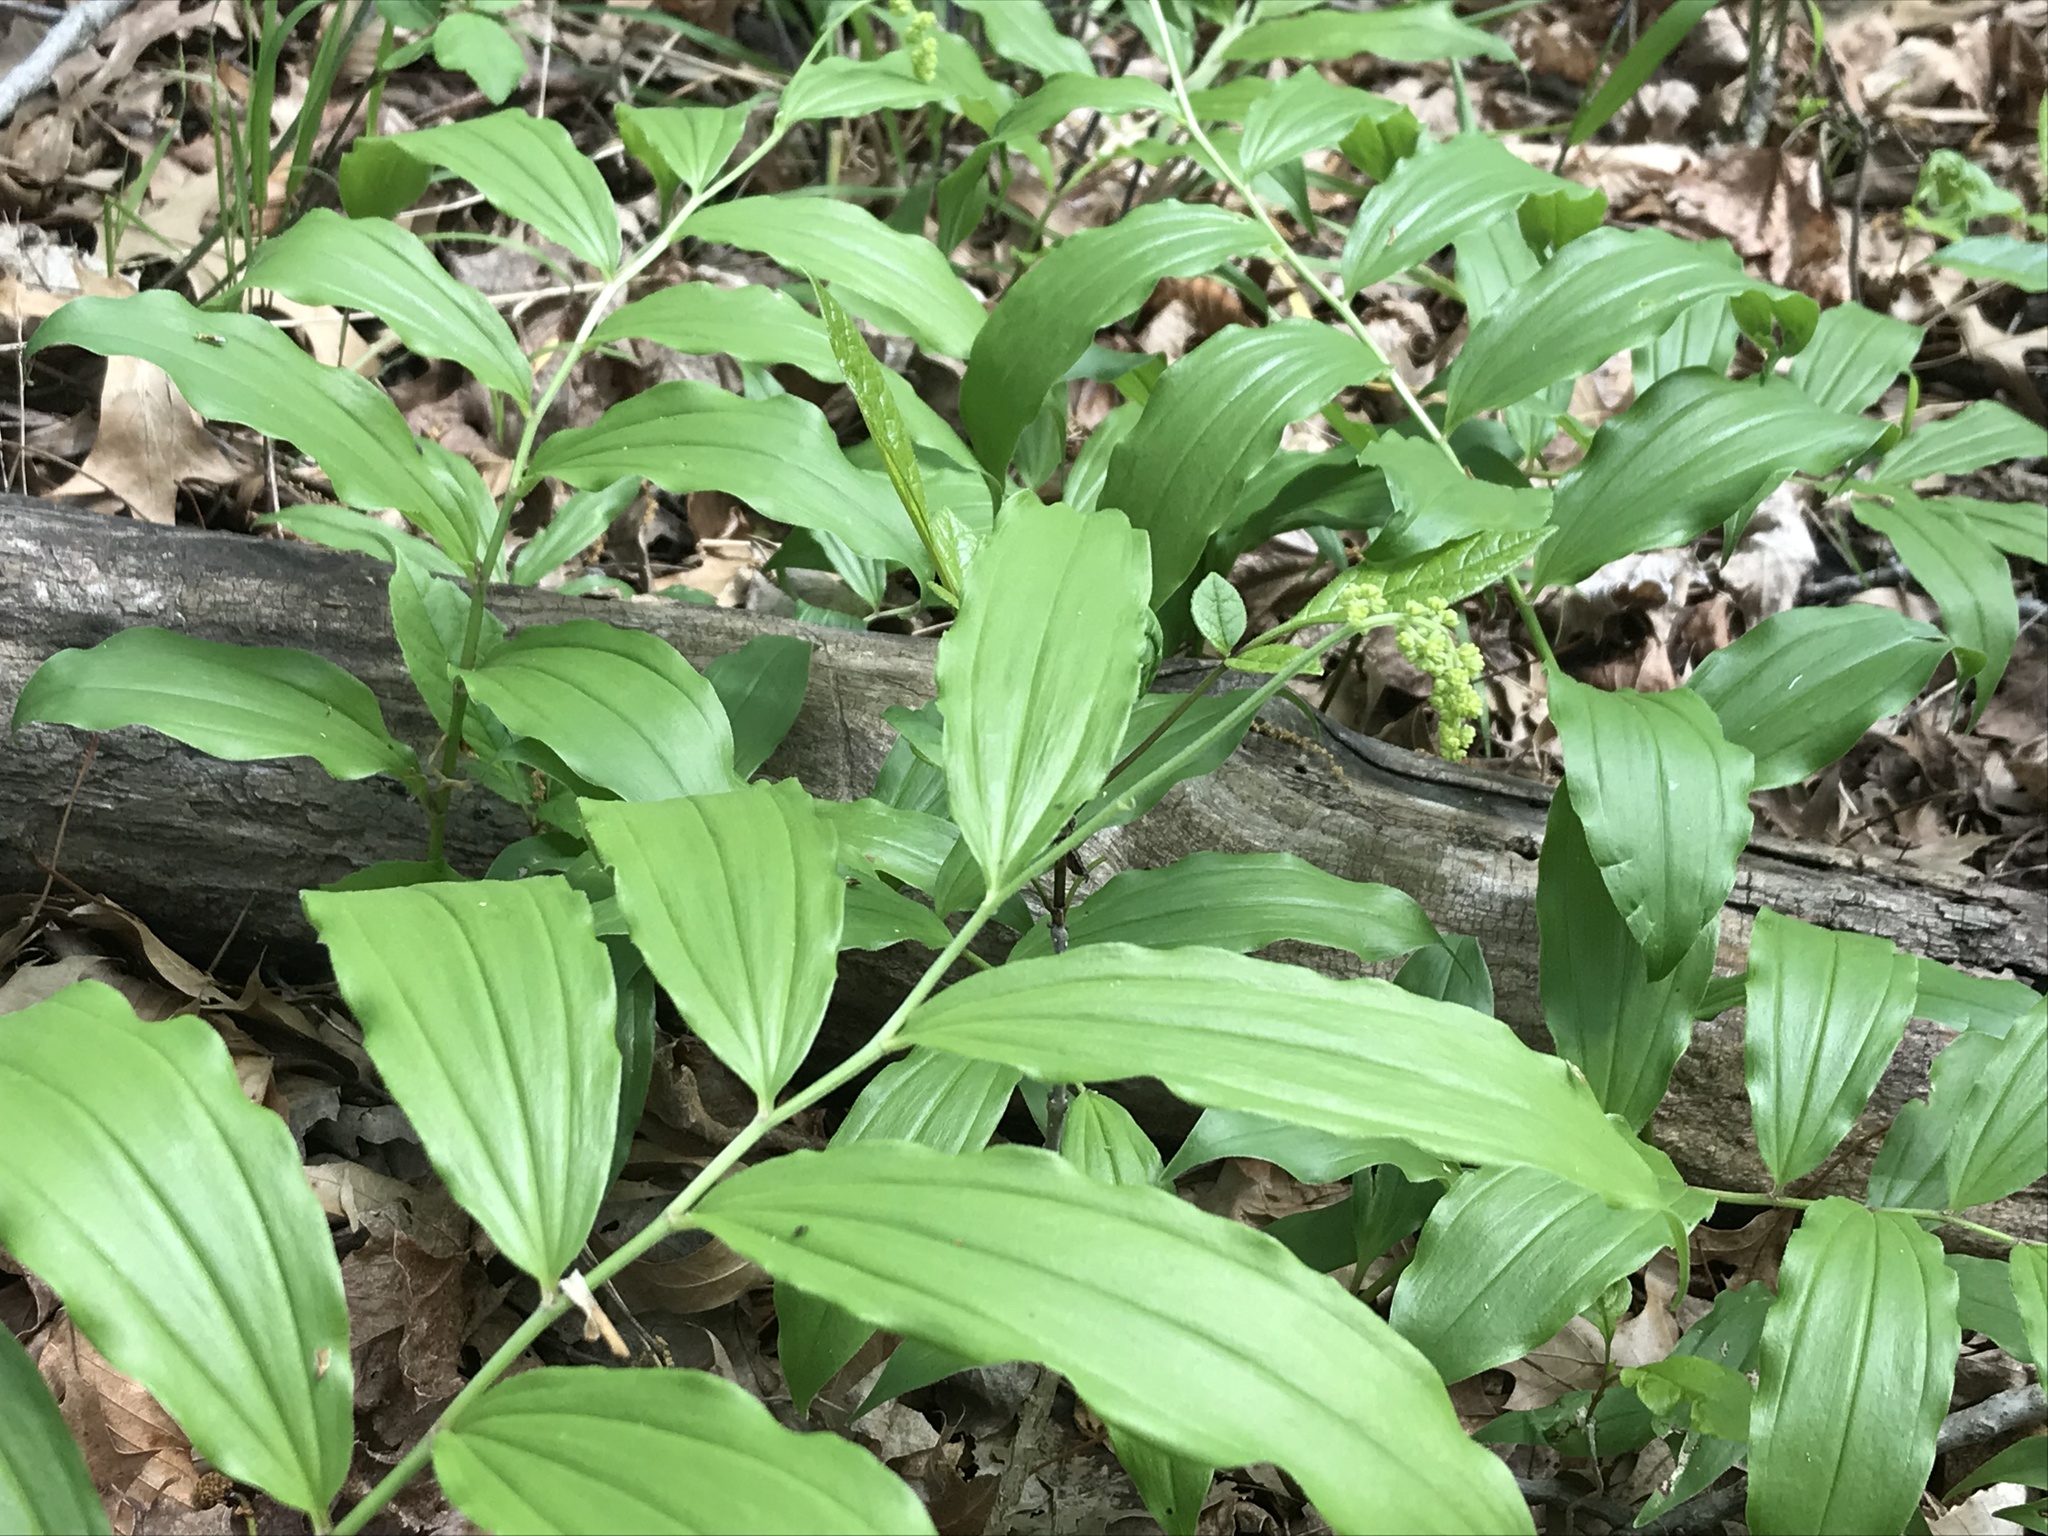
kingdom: Plantae
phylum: Tracheophyta
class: Liliopsida
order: Asparagales
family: Asparagaceae
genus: Maianthemum
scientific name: Maianthemum racemosum
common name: False spikenard
